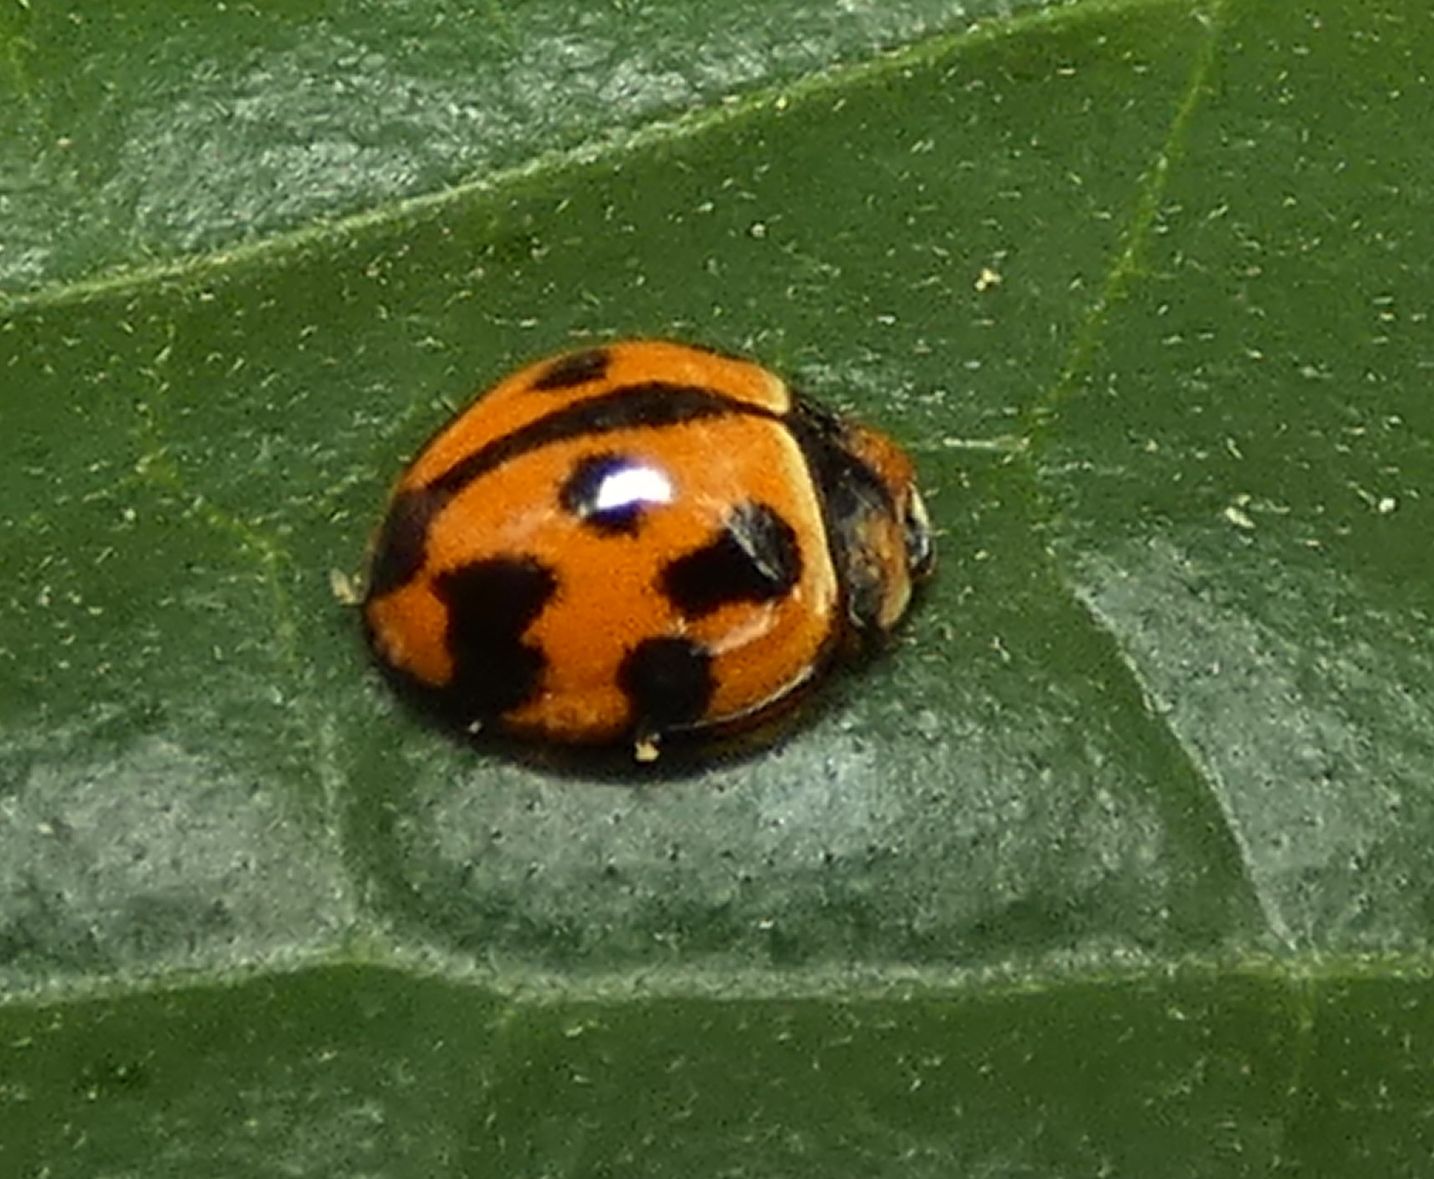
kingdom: Animalia
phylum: Arthropoda
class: Insecta
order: Coleoptera
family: Coccinellidae
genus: Coelophora
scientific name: Coelophora inaequalis
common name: Common australian lady beetle
